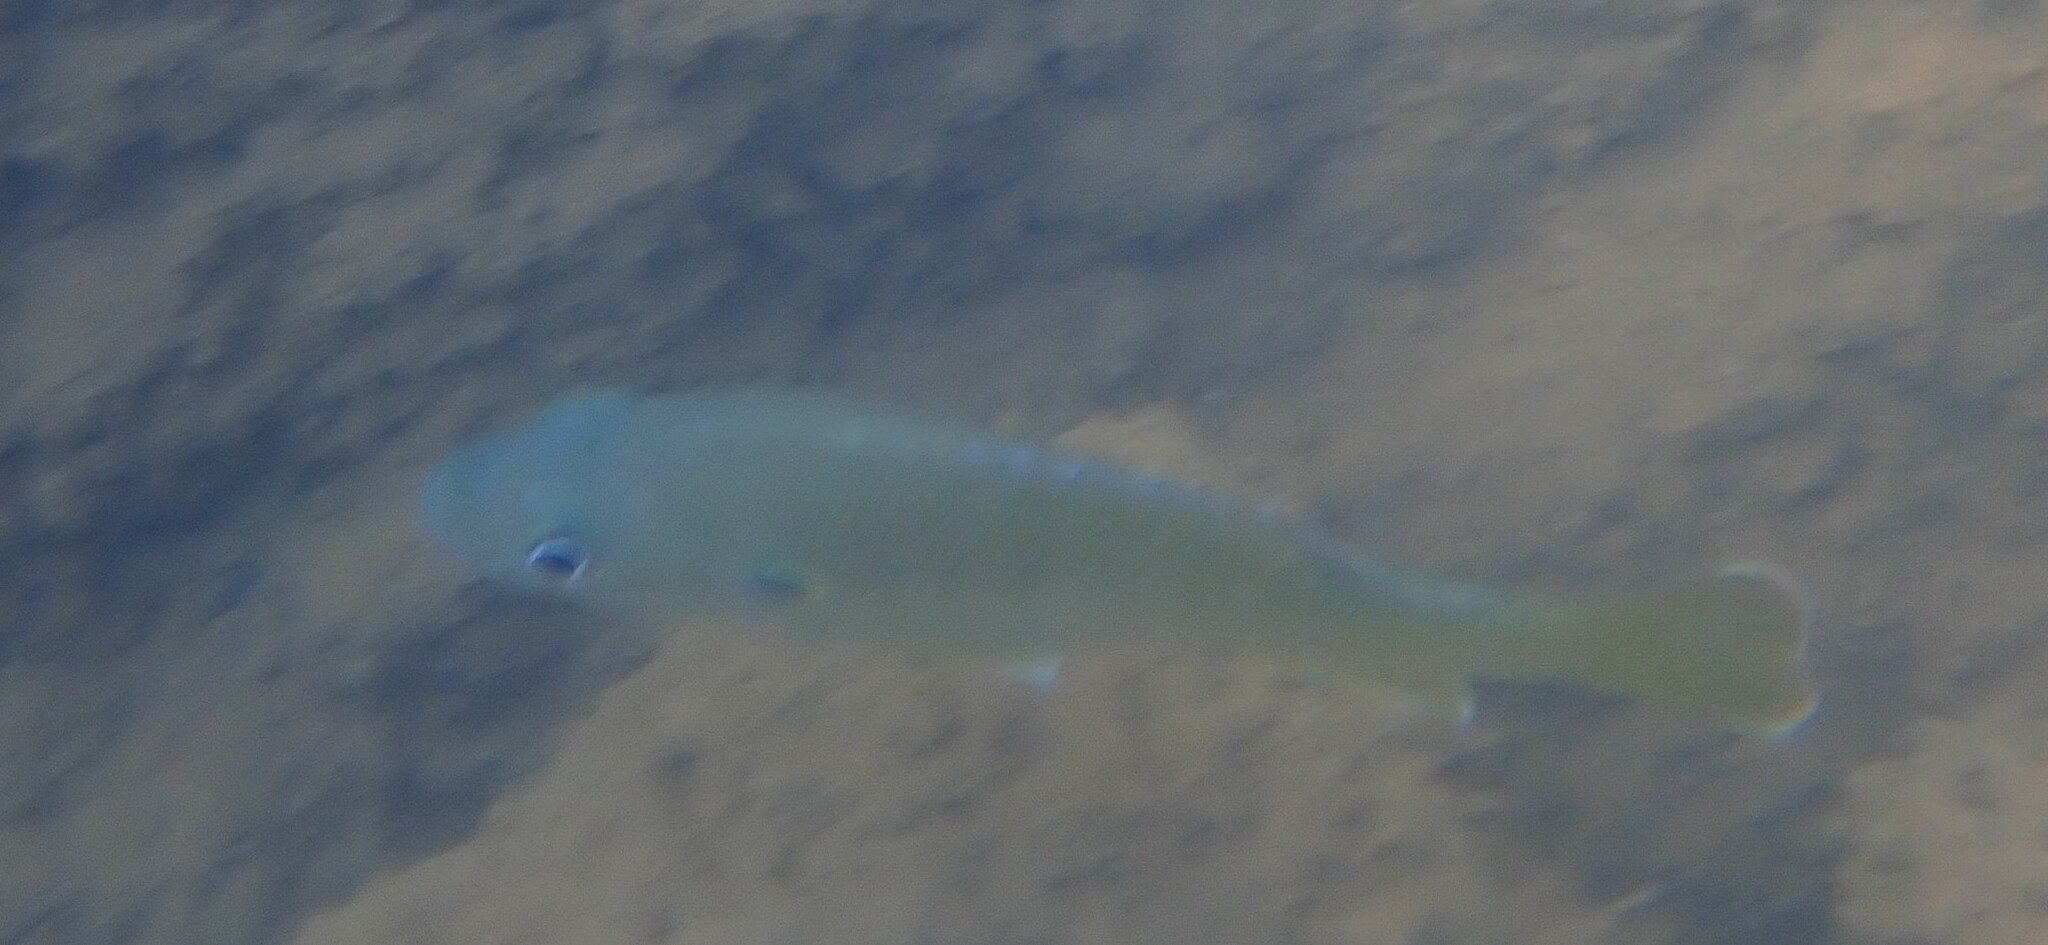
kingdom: Animalia
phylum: Chordata
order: Perciformes
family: Centrarchidae
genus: Lepomis
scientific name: Lepomis cyanellus
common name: Green sunfish
